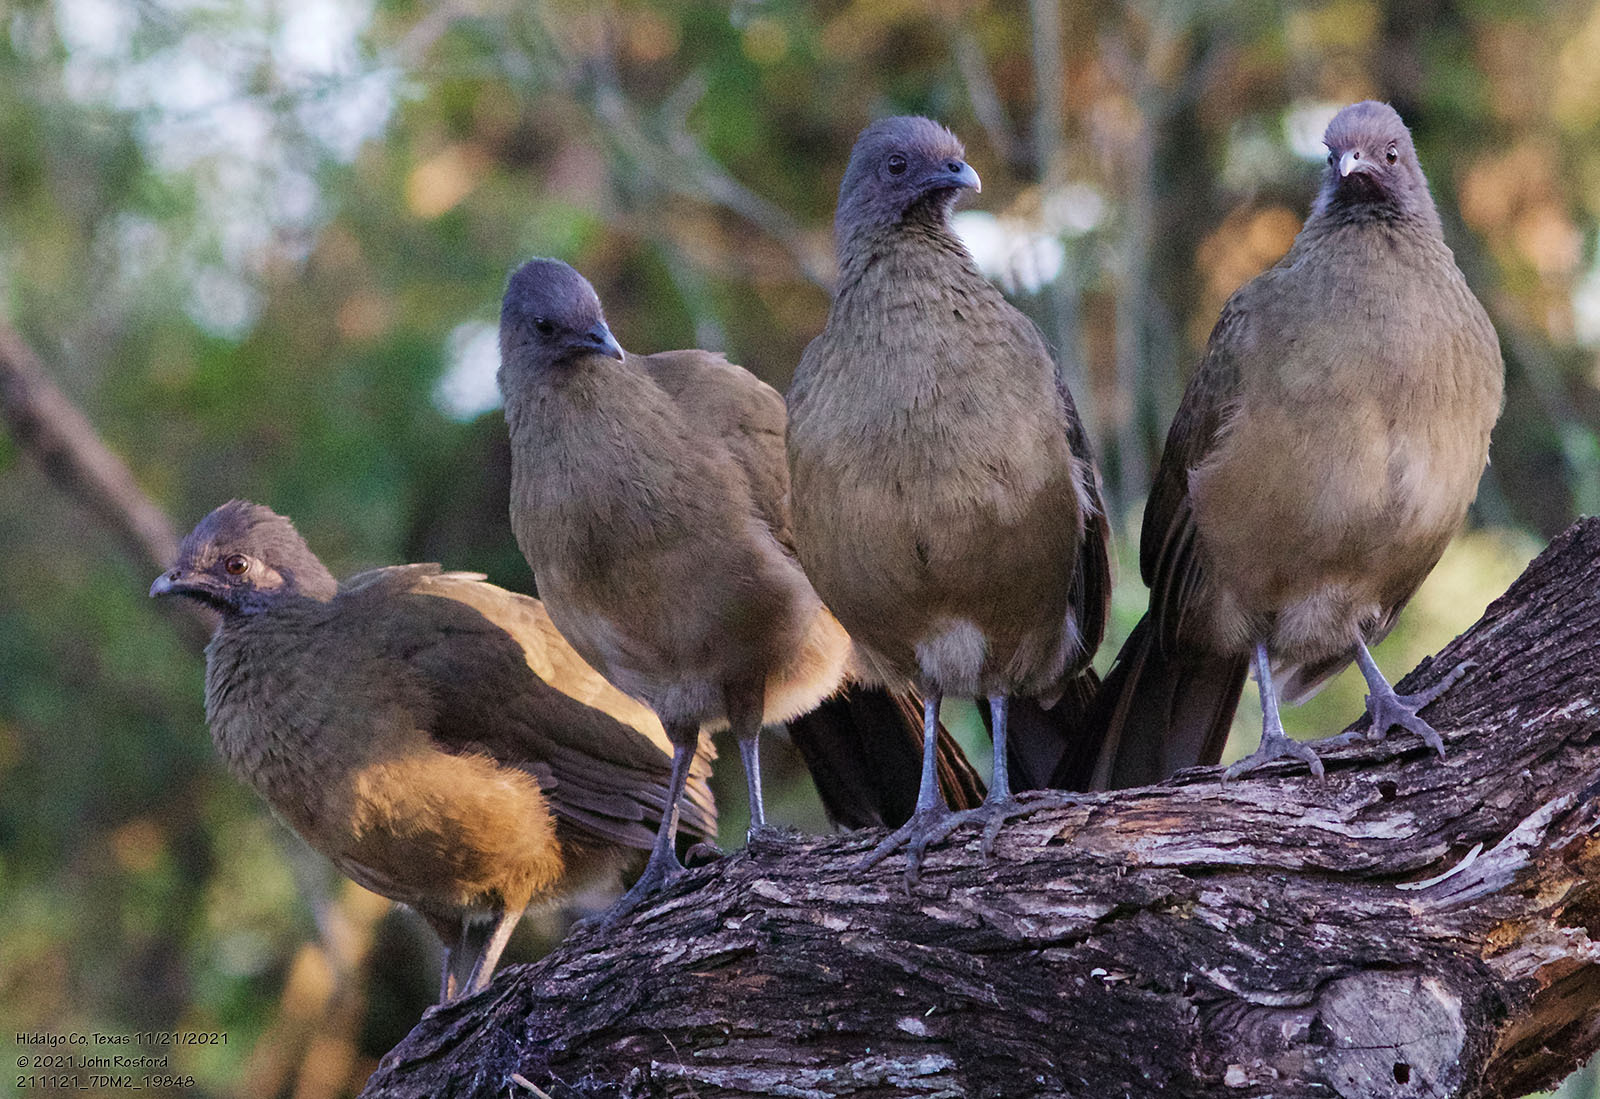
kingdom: Animalia
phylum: Chordata
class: Aves
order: Galliformes
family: Cracidae
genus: Ortalis
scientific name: Ortalis vetula
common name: Plain chachalaca
